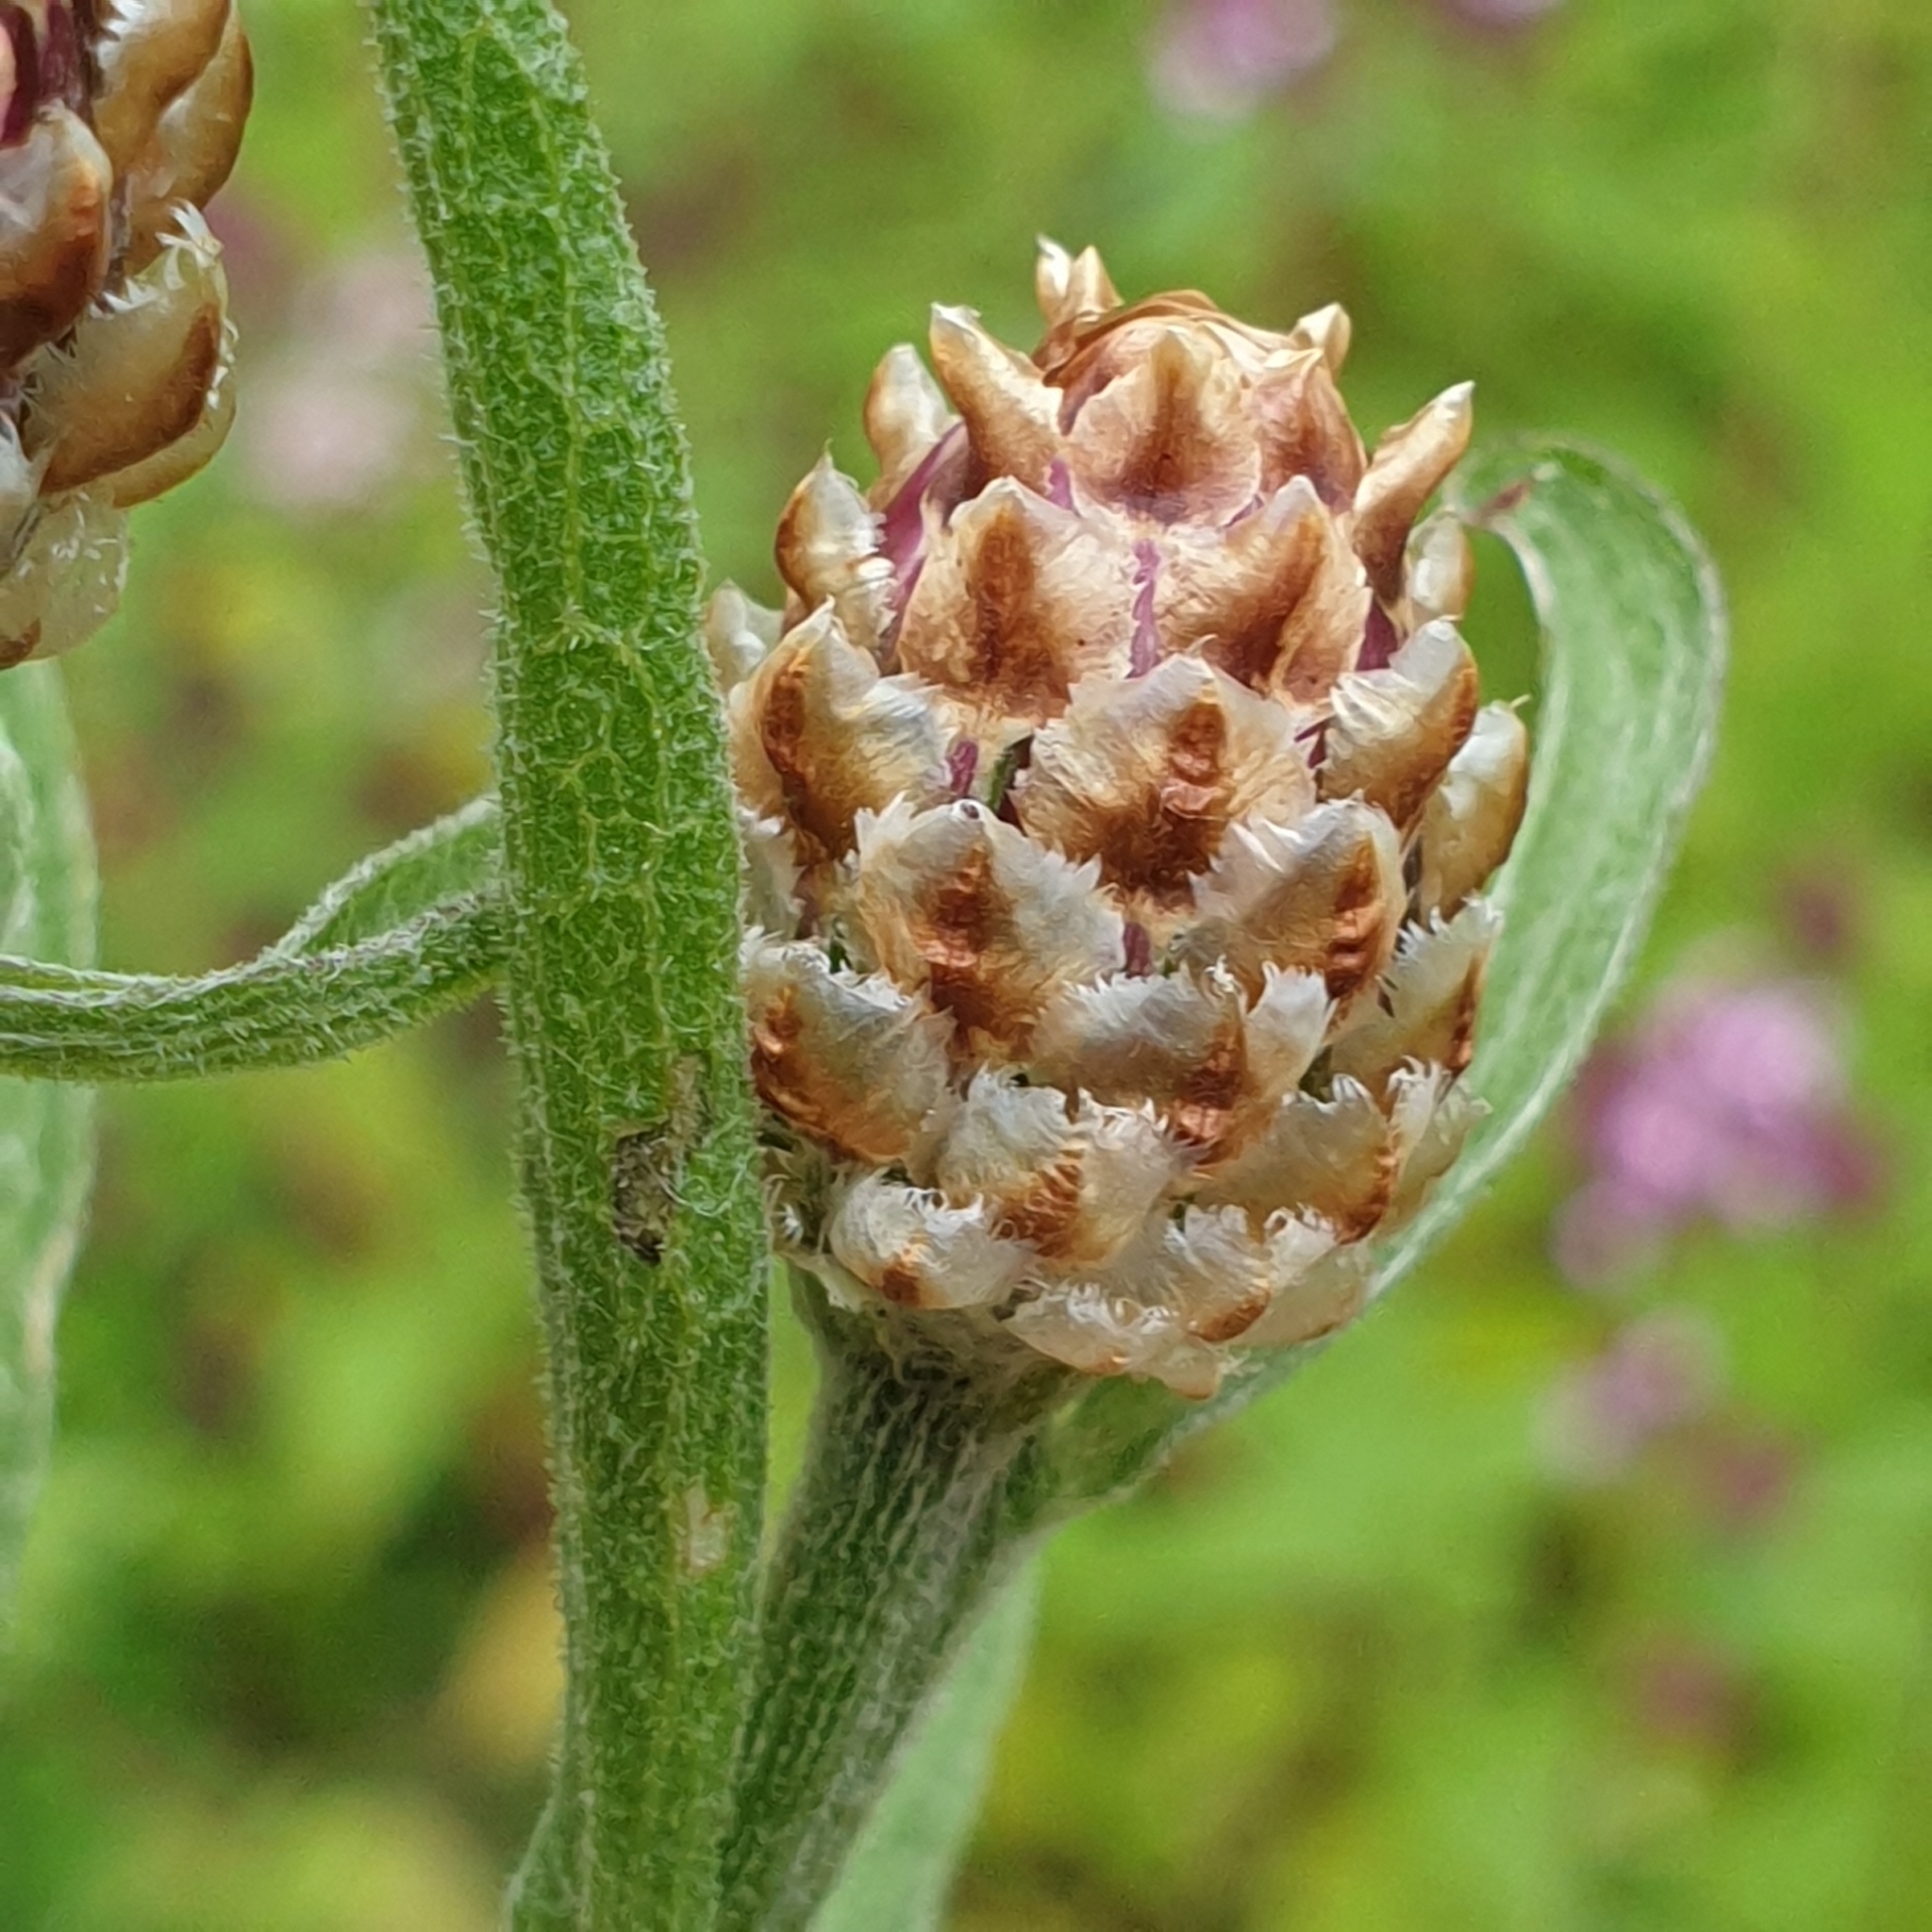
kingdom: Plantae
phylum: Tracheophyta
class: Magnoliopsida
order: Asterales
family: Asteraceae
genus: Centaurea
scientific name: Centaurea jacea
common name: Brown knapweed
